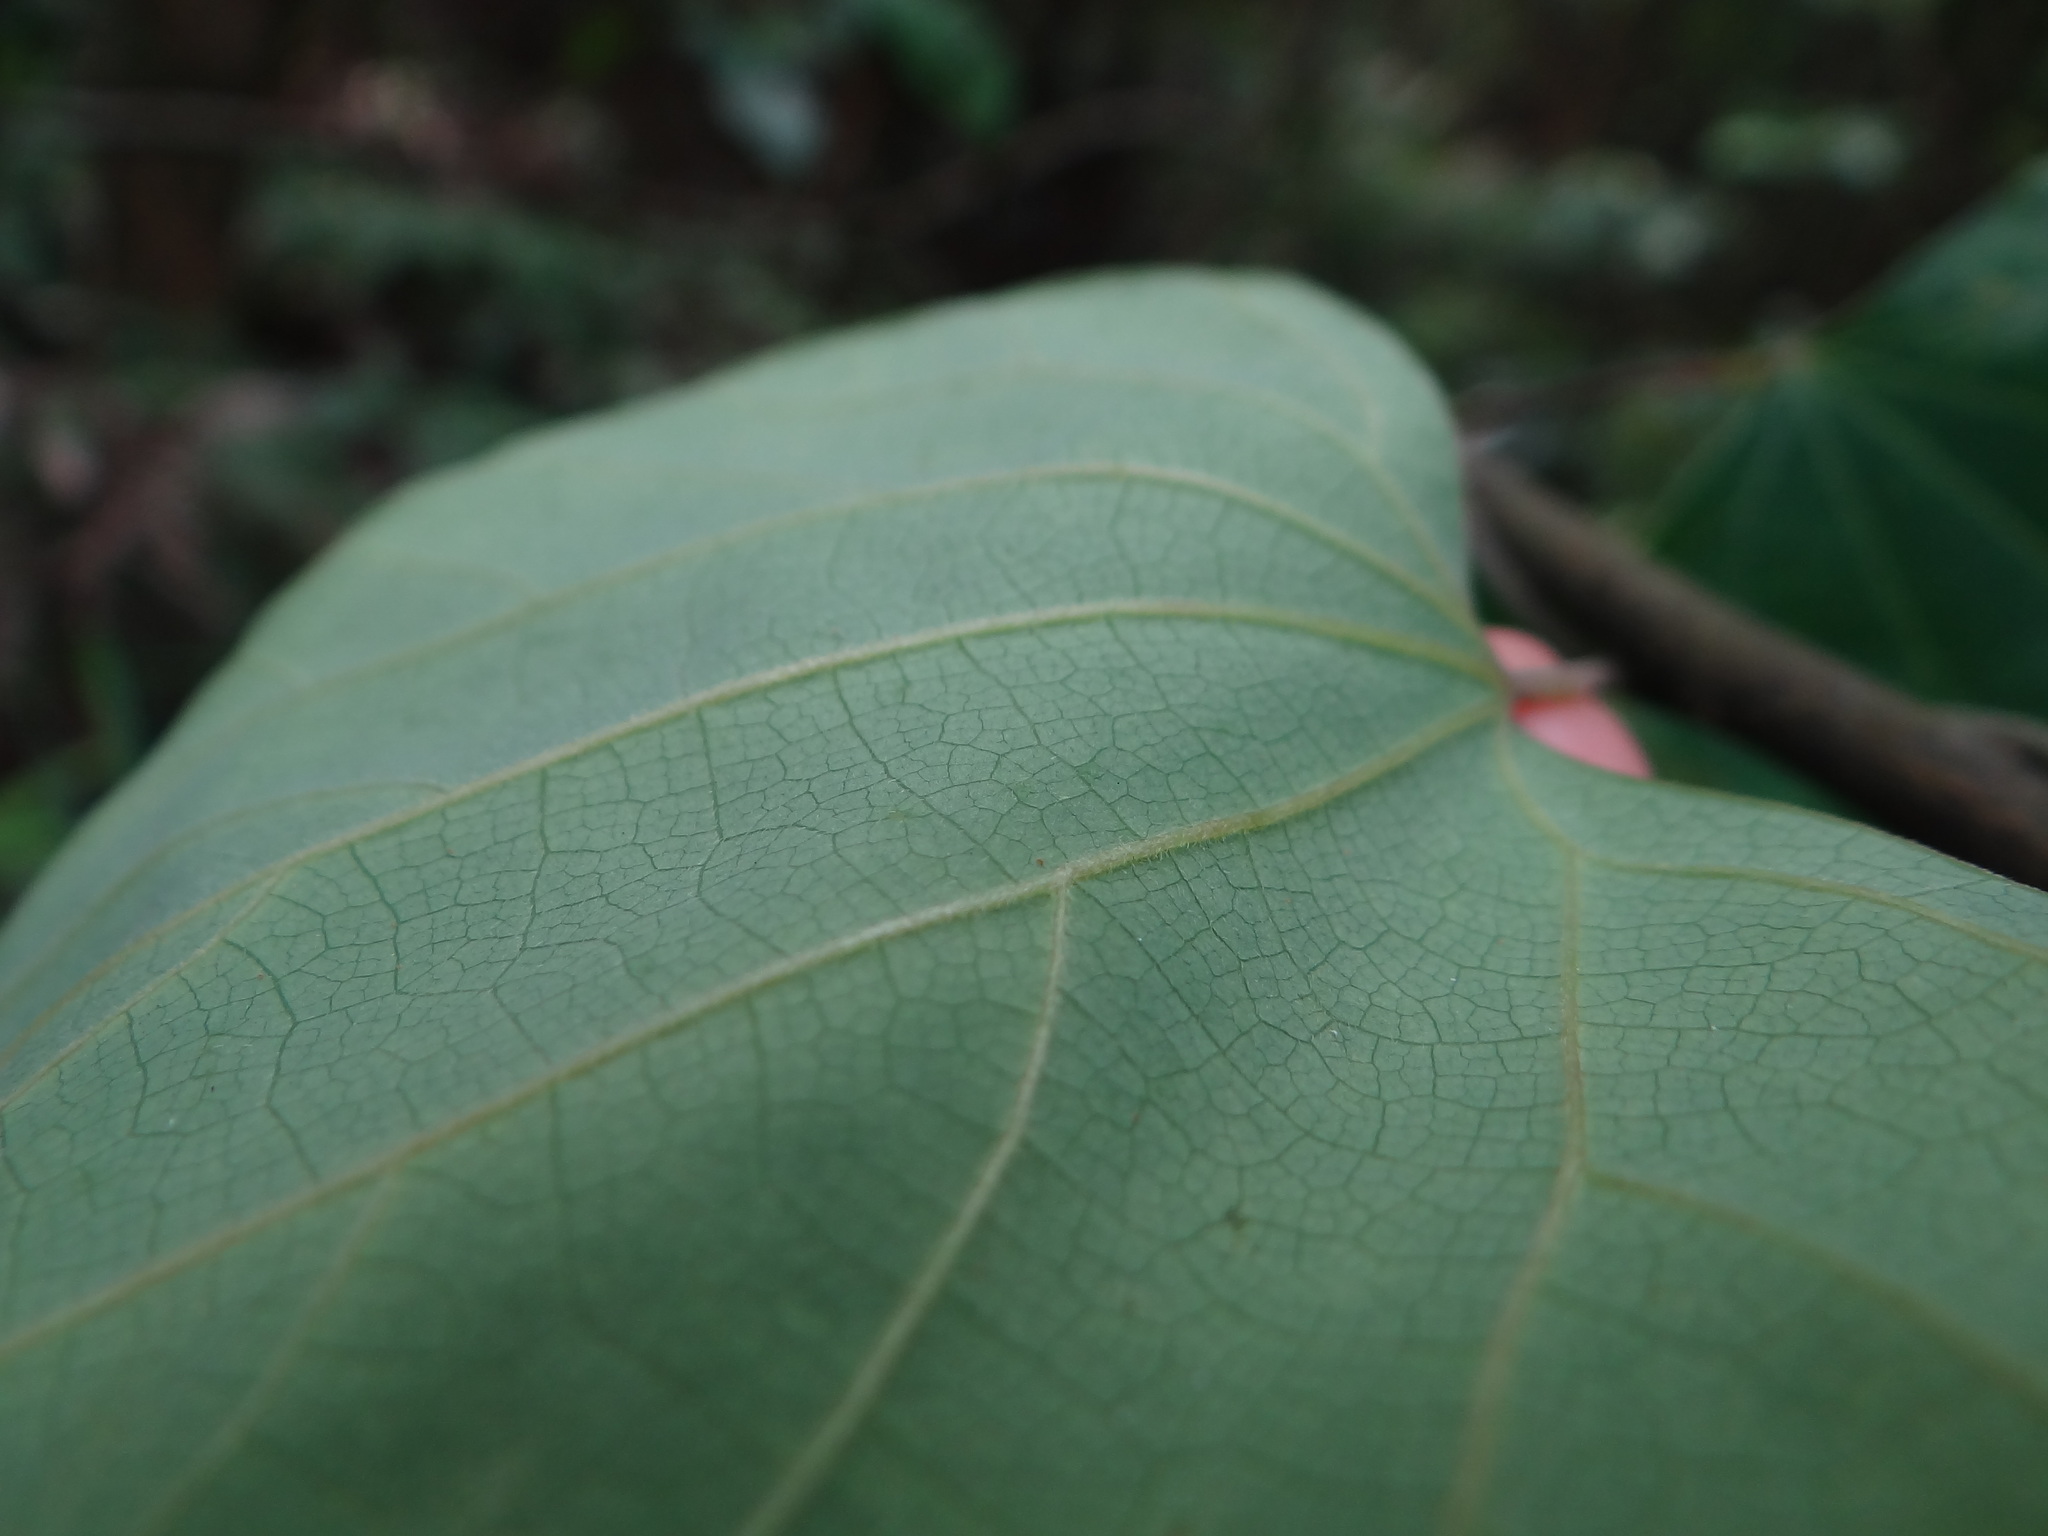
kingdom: Plantae
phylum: Tracheophyta
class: Magnoliopsida
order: Ranunculales
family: Menispermaceae
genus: Pericampylus
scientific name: Pericampylus glaucus
